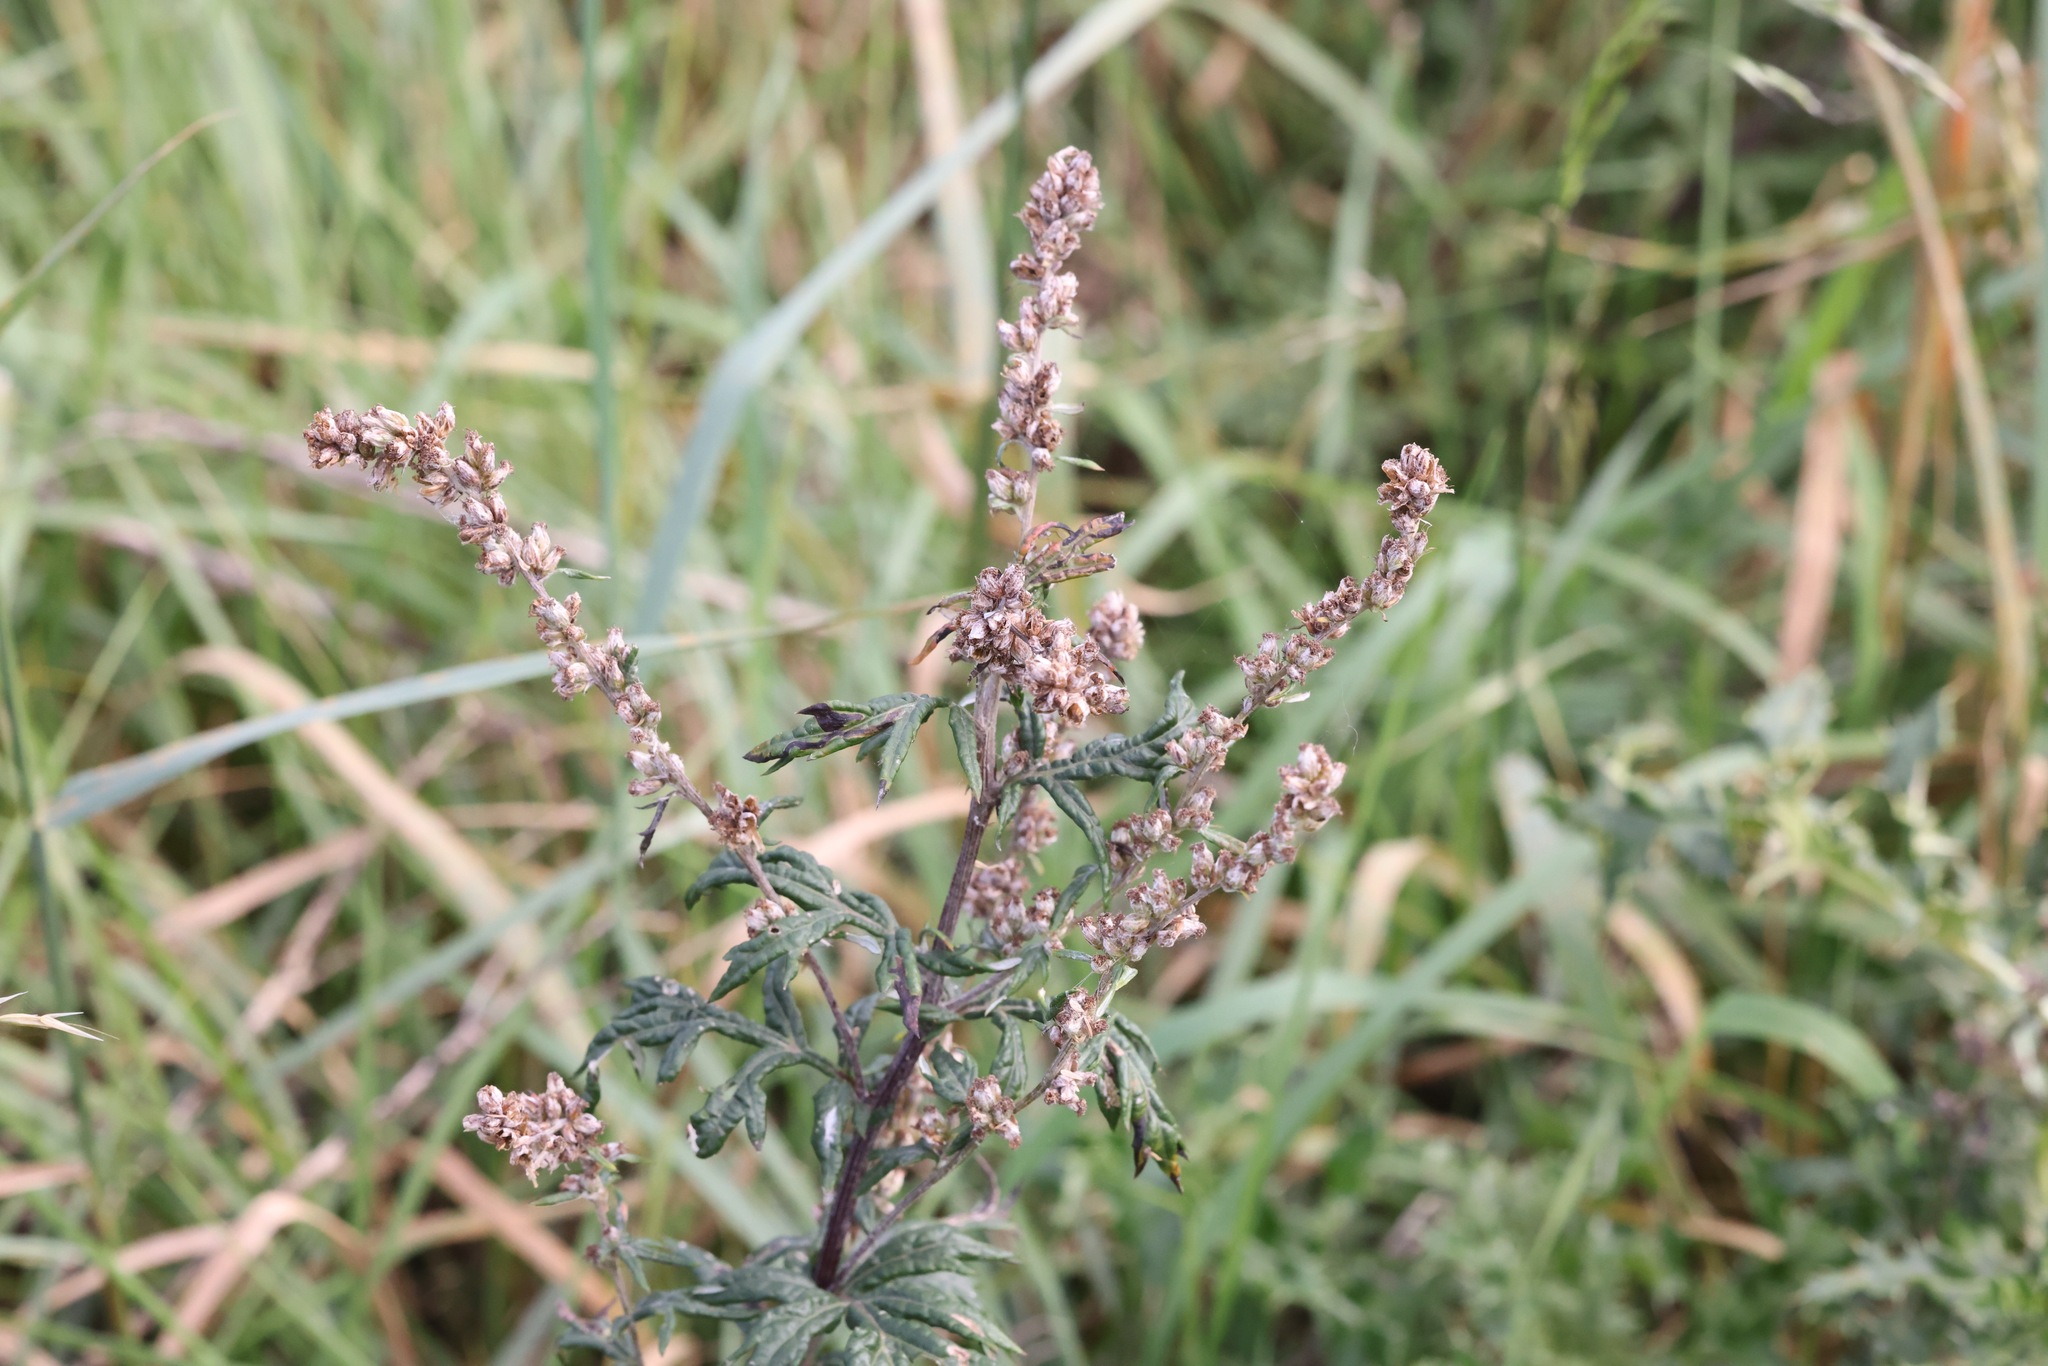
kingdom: Plantae
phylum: Tracheophyta
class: Magnoliopsida
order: Asterales
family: Asteraceae
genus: Artemisia
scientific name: Artemisia vulgaris
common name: Mugwort
